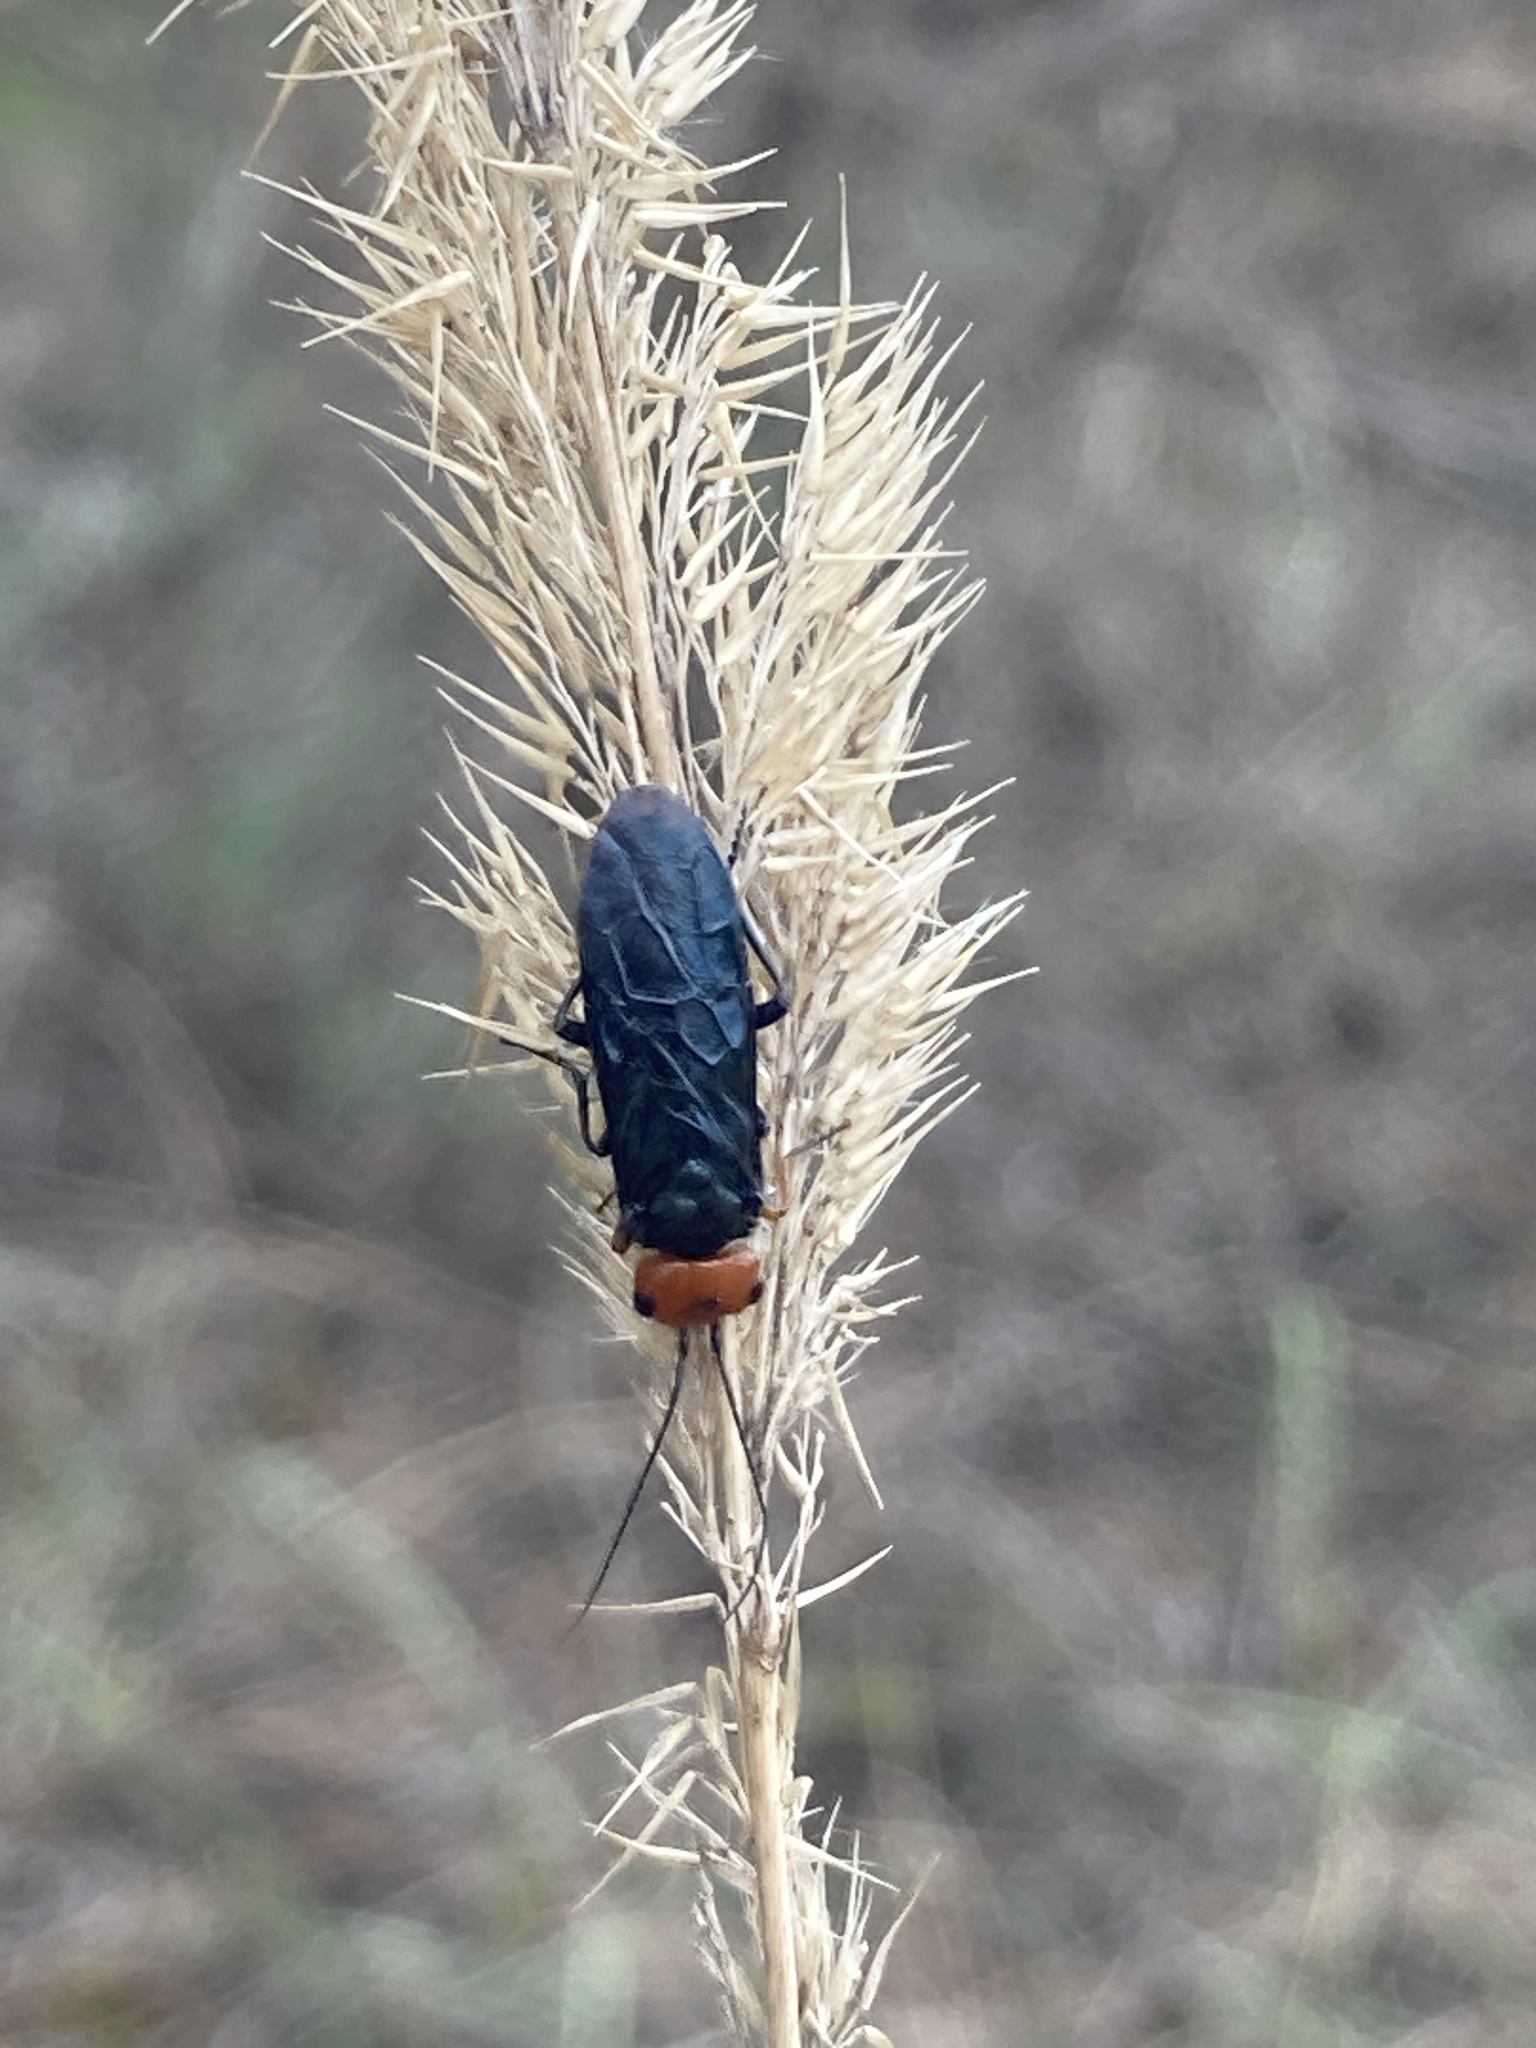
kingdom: Animalia
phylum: Arthropoda
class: Insecta
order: Hymenoptera
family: Pamphiliidae
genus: Acantholyda
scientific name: Acantholyda erythrocephala
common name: Pine false webworm
